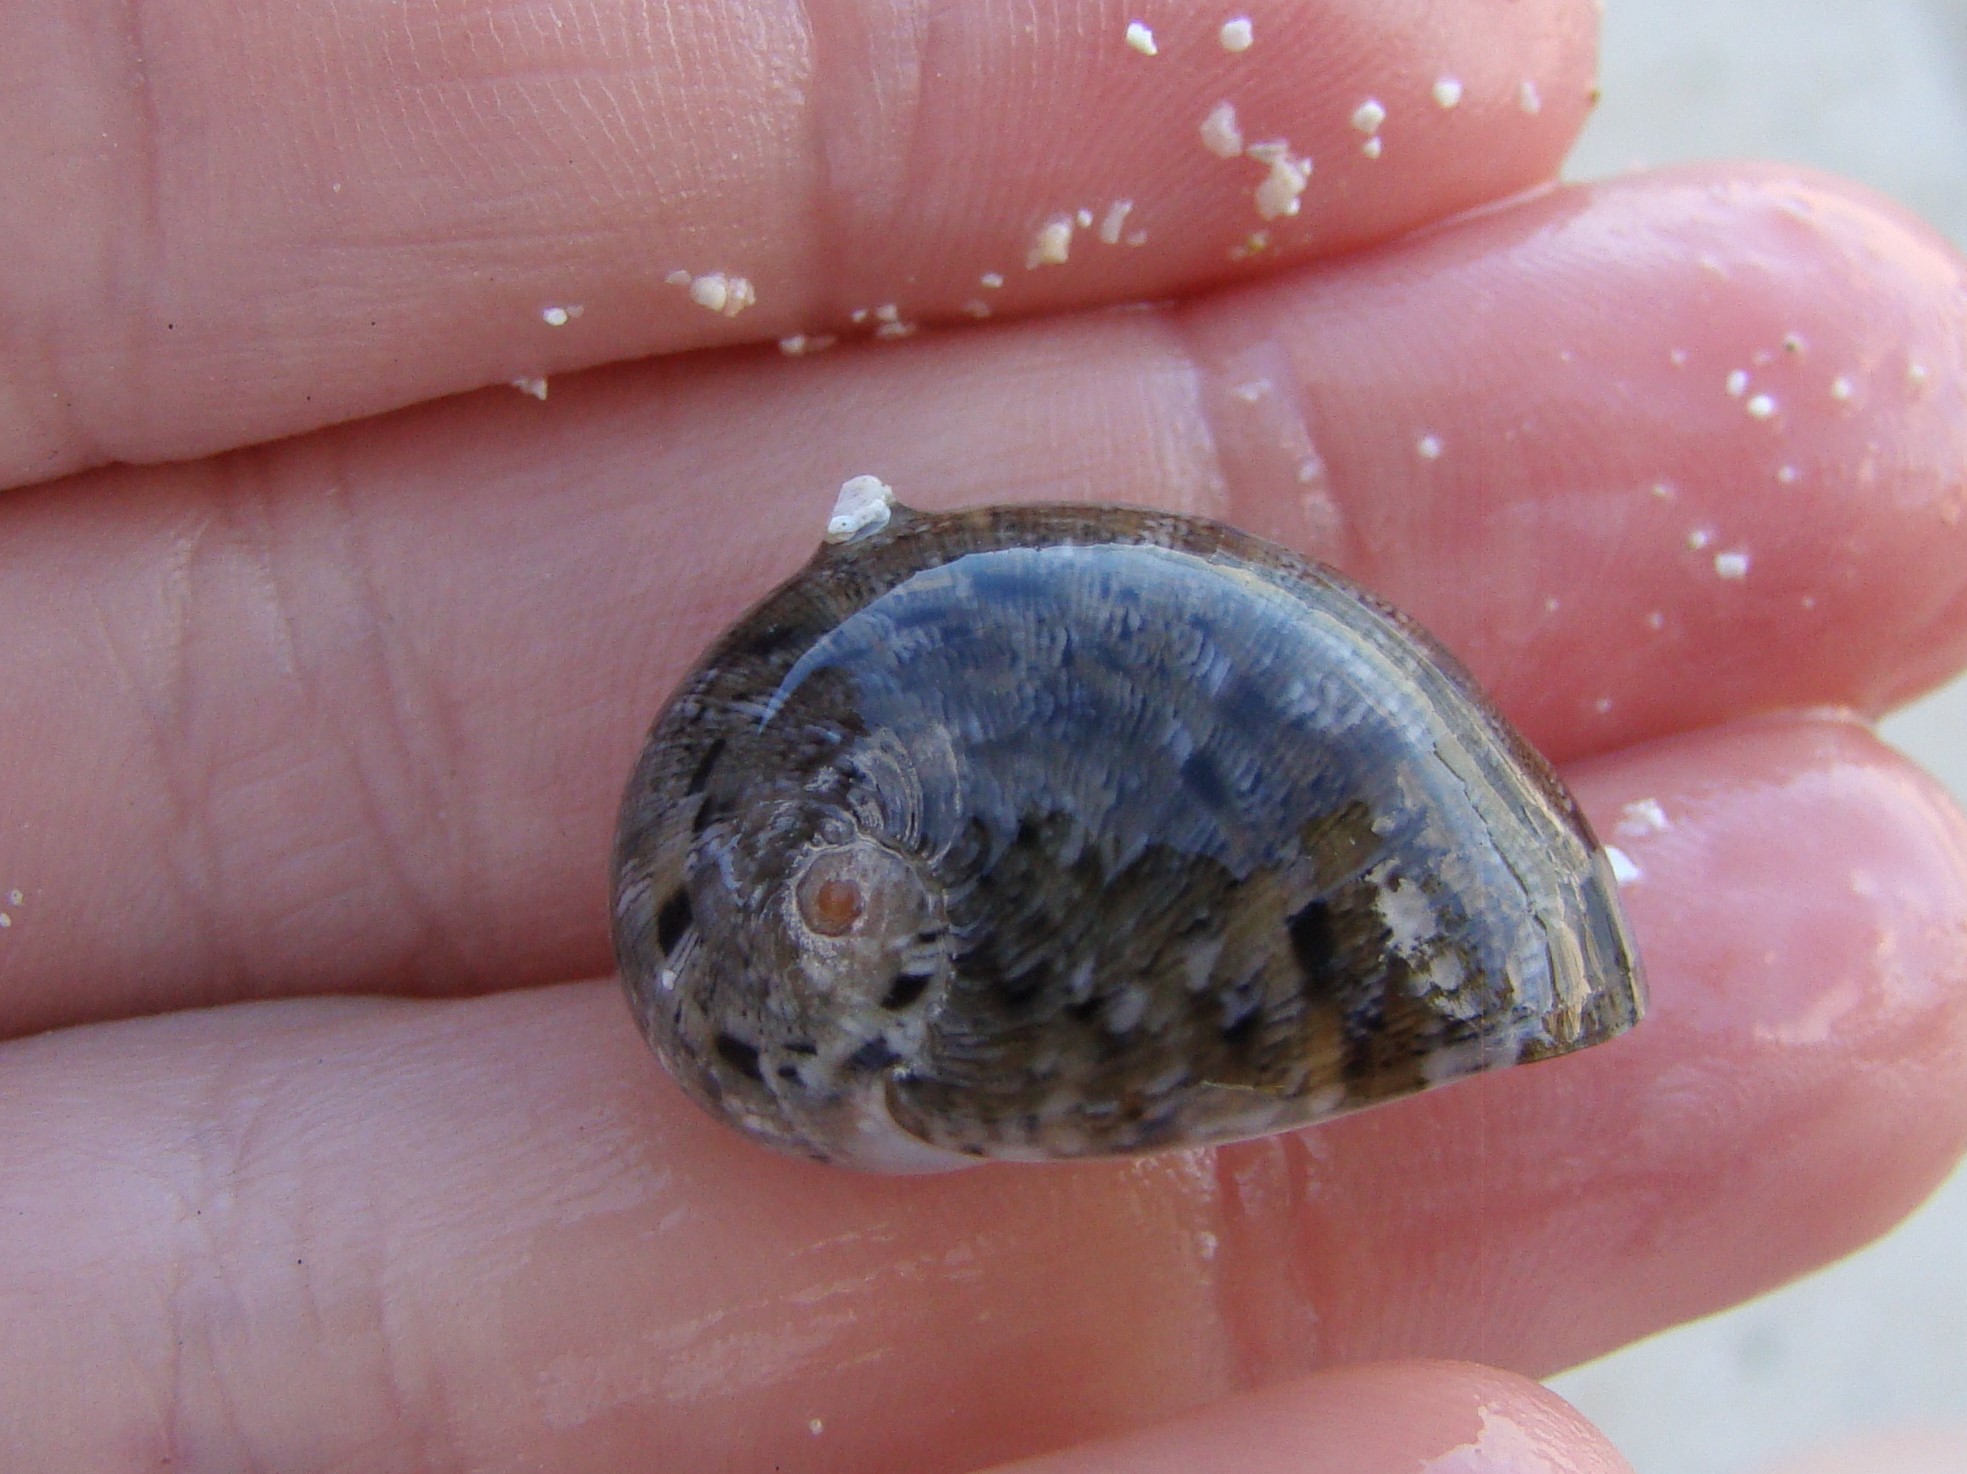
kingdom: Animalia
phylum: Mollusca
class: Gastropoda
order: Cycloneritida
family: Neritidae
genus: Nerita
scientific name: Nerita polita
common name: Polished nerite
